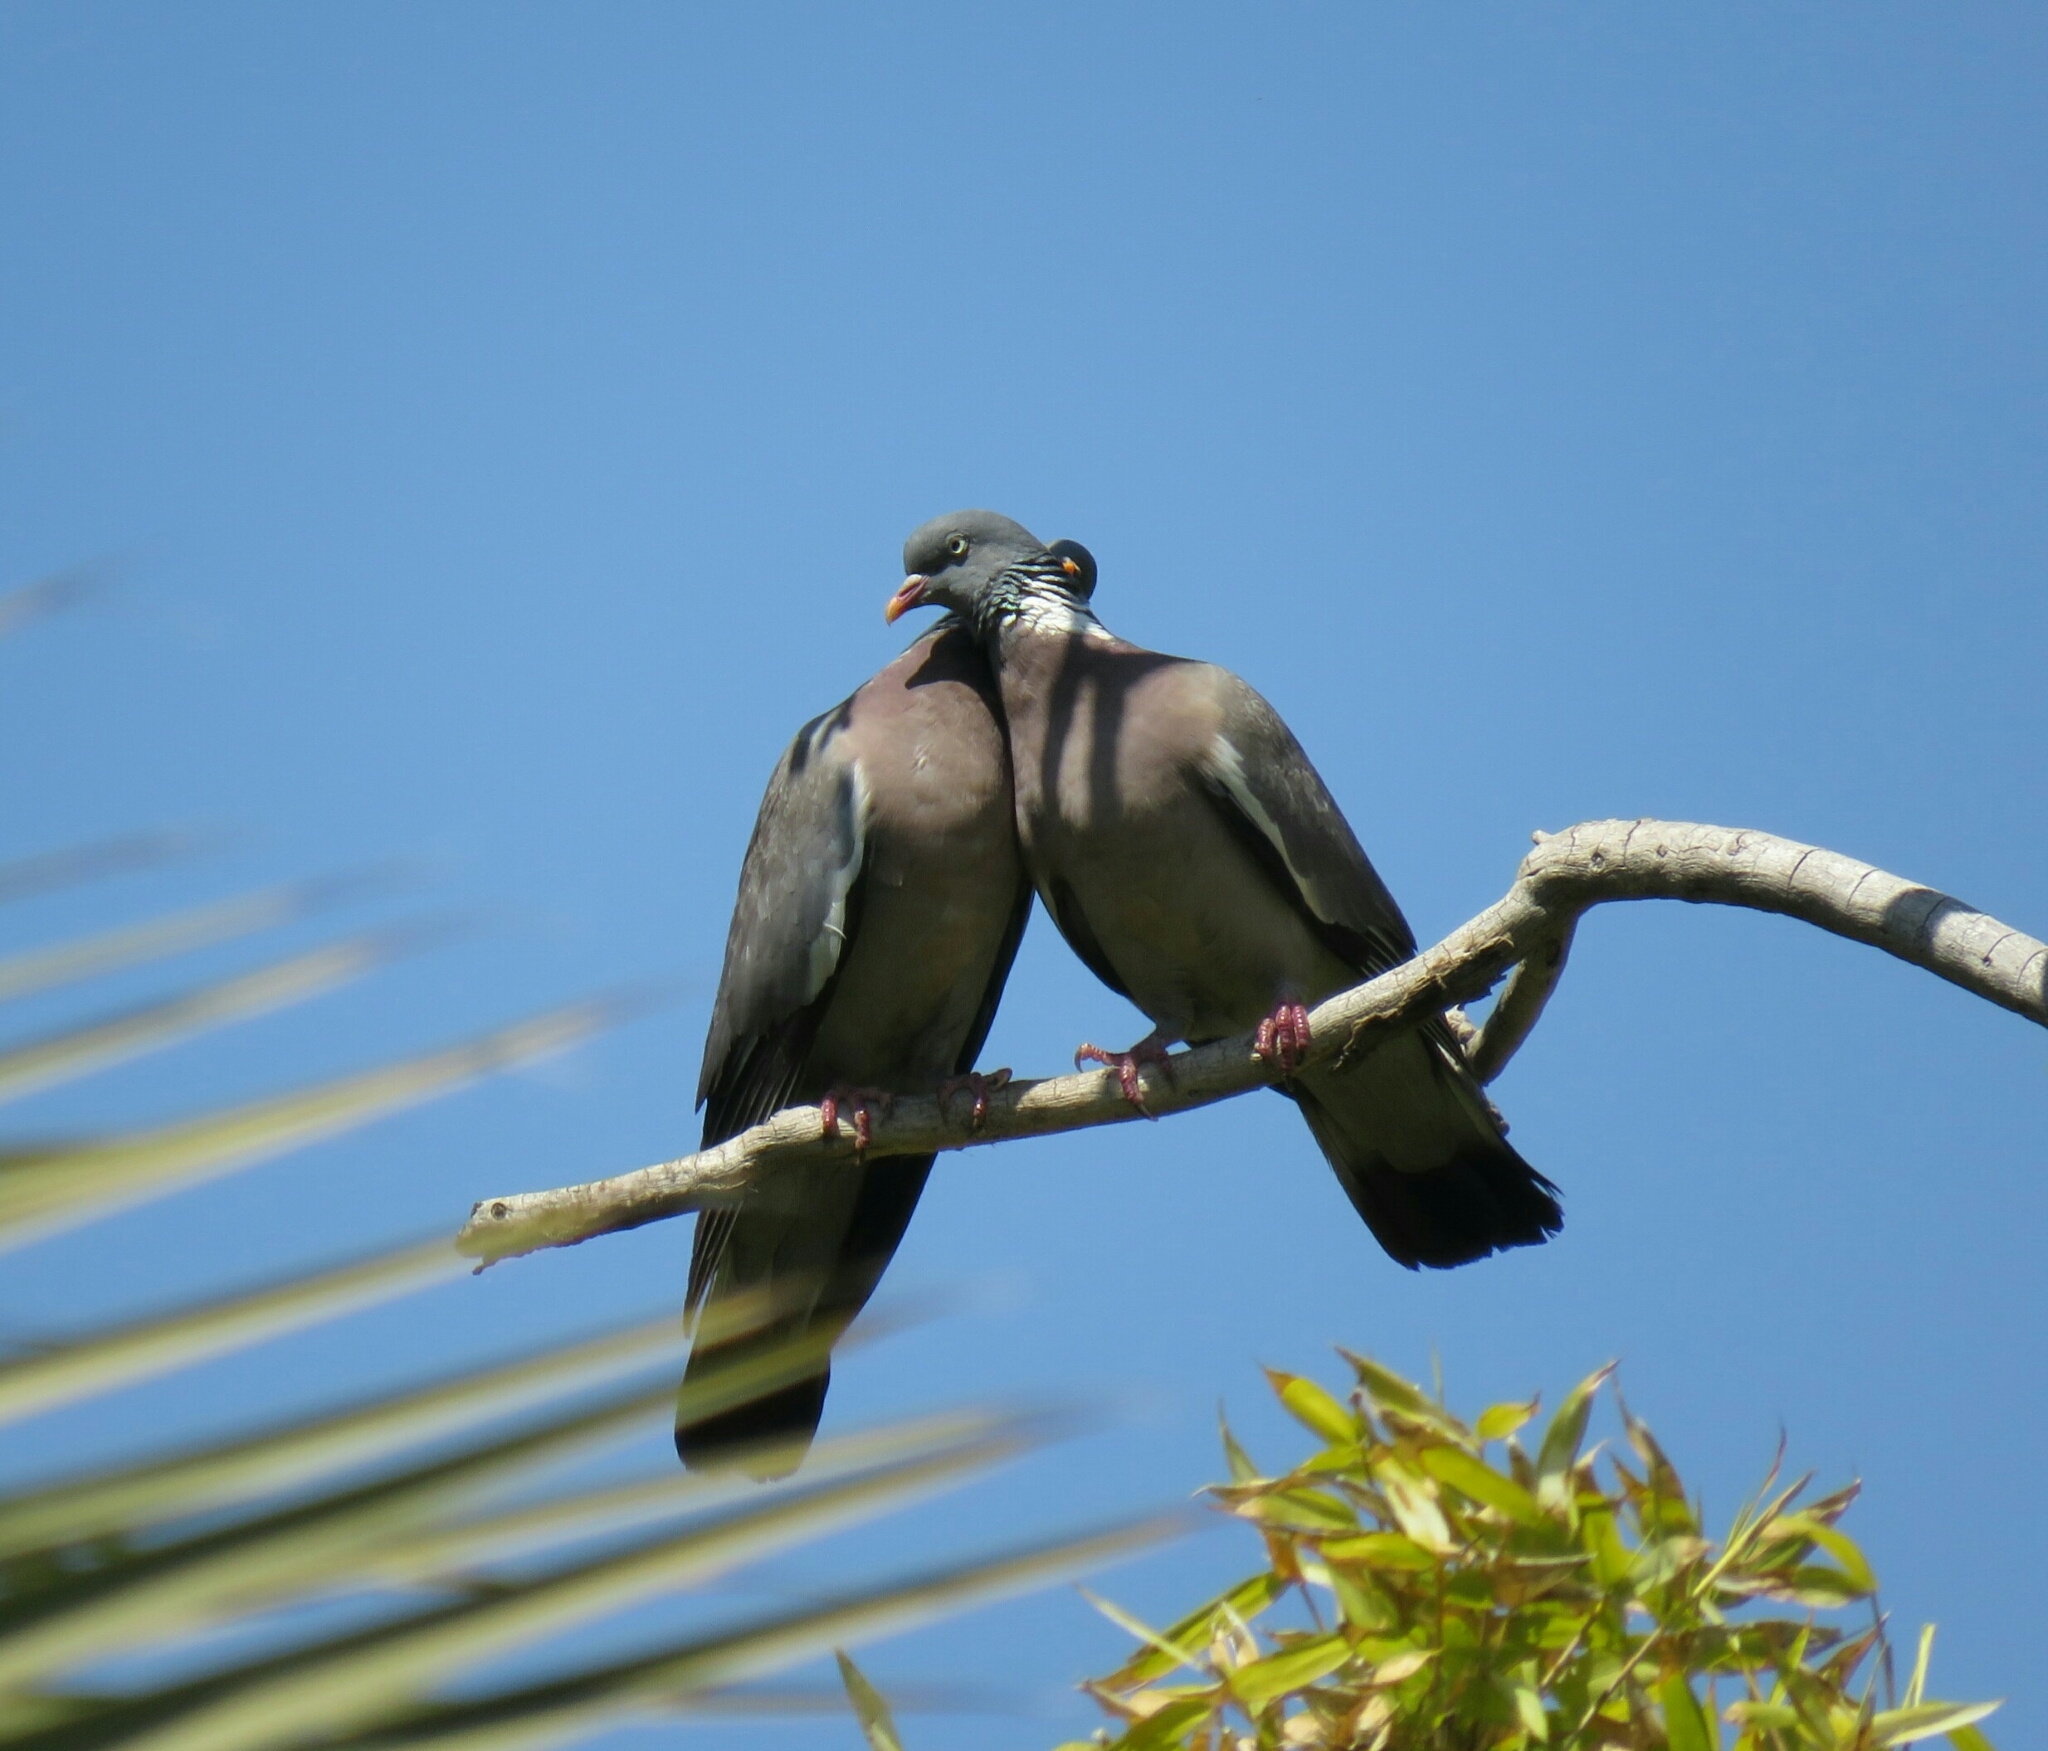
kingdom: Animalia
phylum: Chordata
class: Aves
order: Columbiformes
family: Columbidae
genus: Columba
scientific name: Columba palumbus
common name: Common wood pigeon
